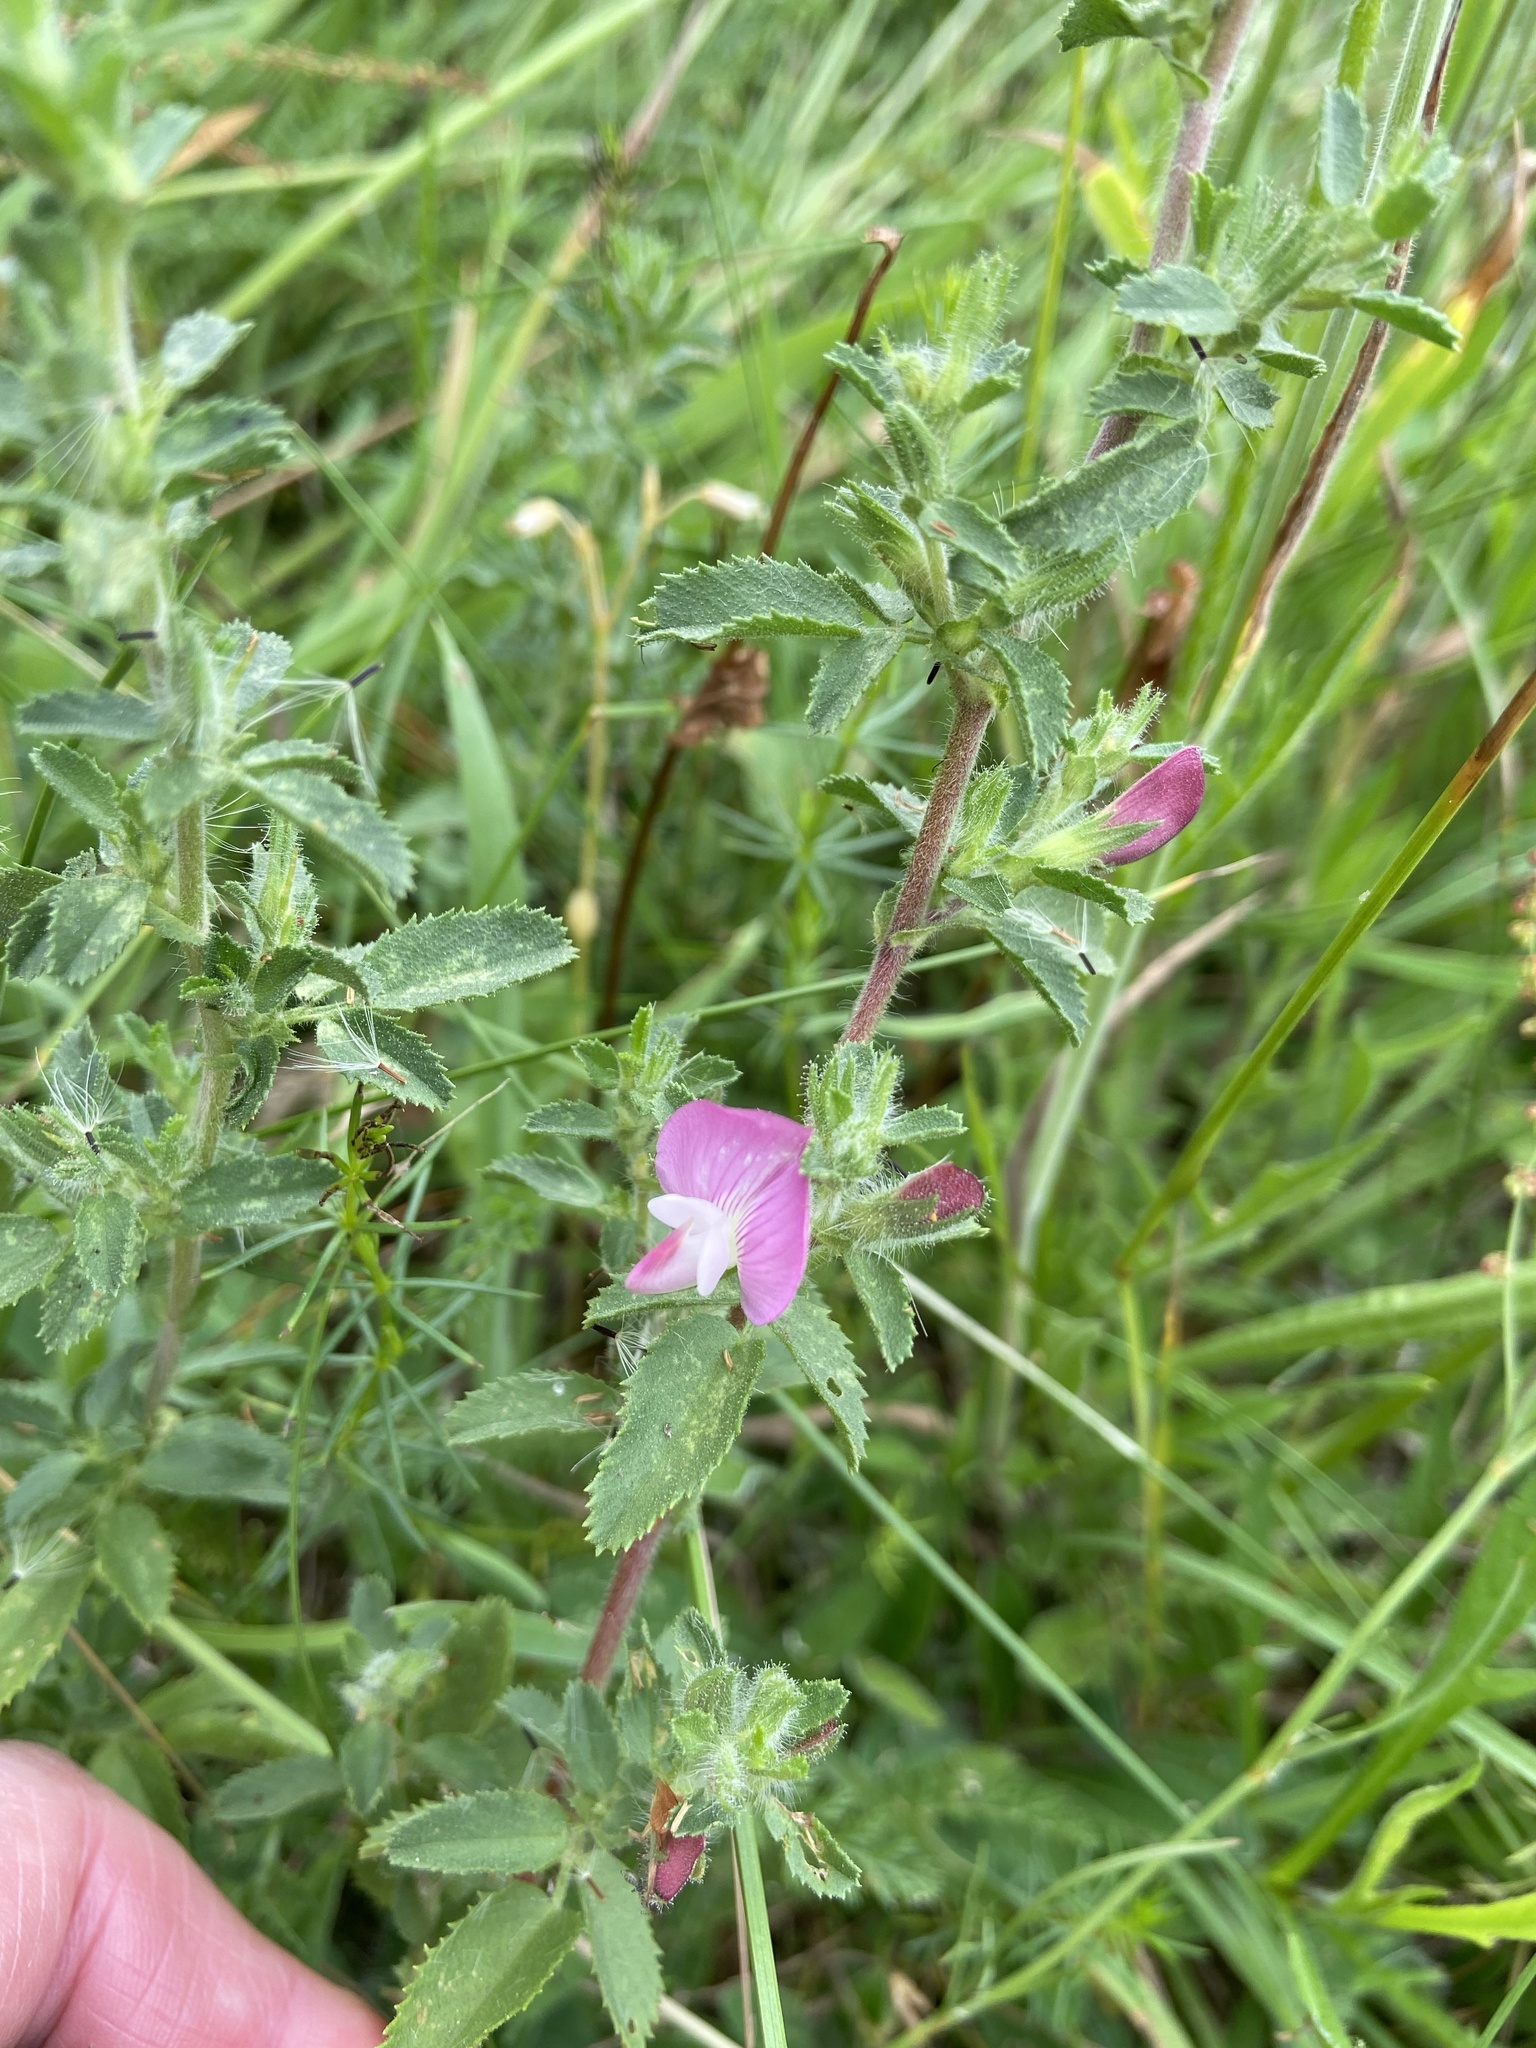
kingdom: Plantae
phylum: Tracheophyta
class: Magnoliopsida
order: Fabales
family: Fabaceae
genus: Ononis
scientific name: Ononis spinosa
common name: Spiny restharrow
